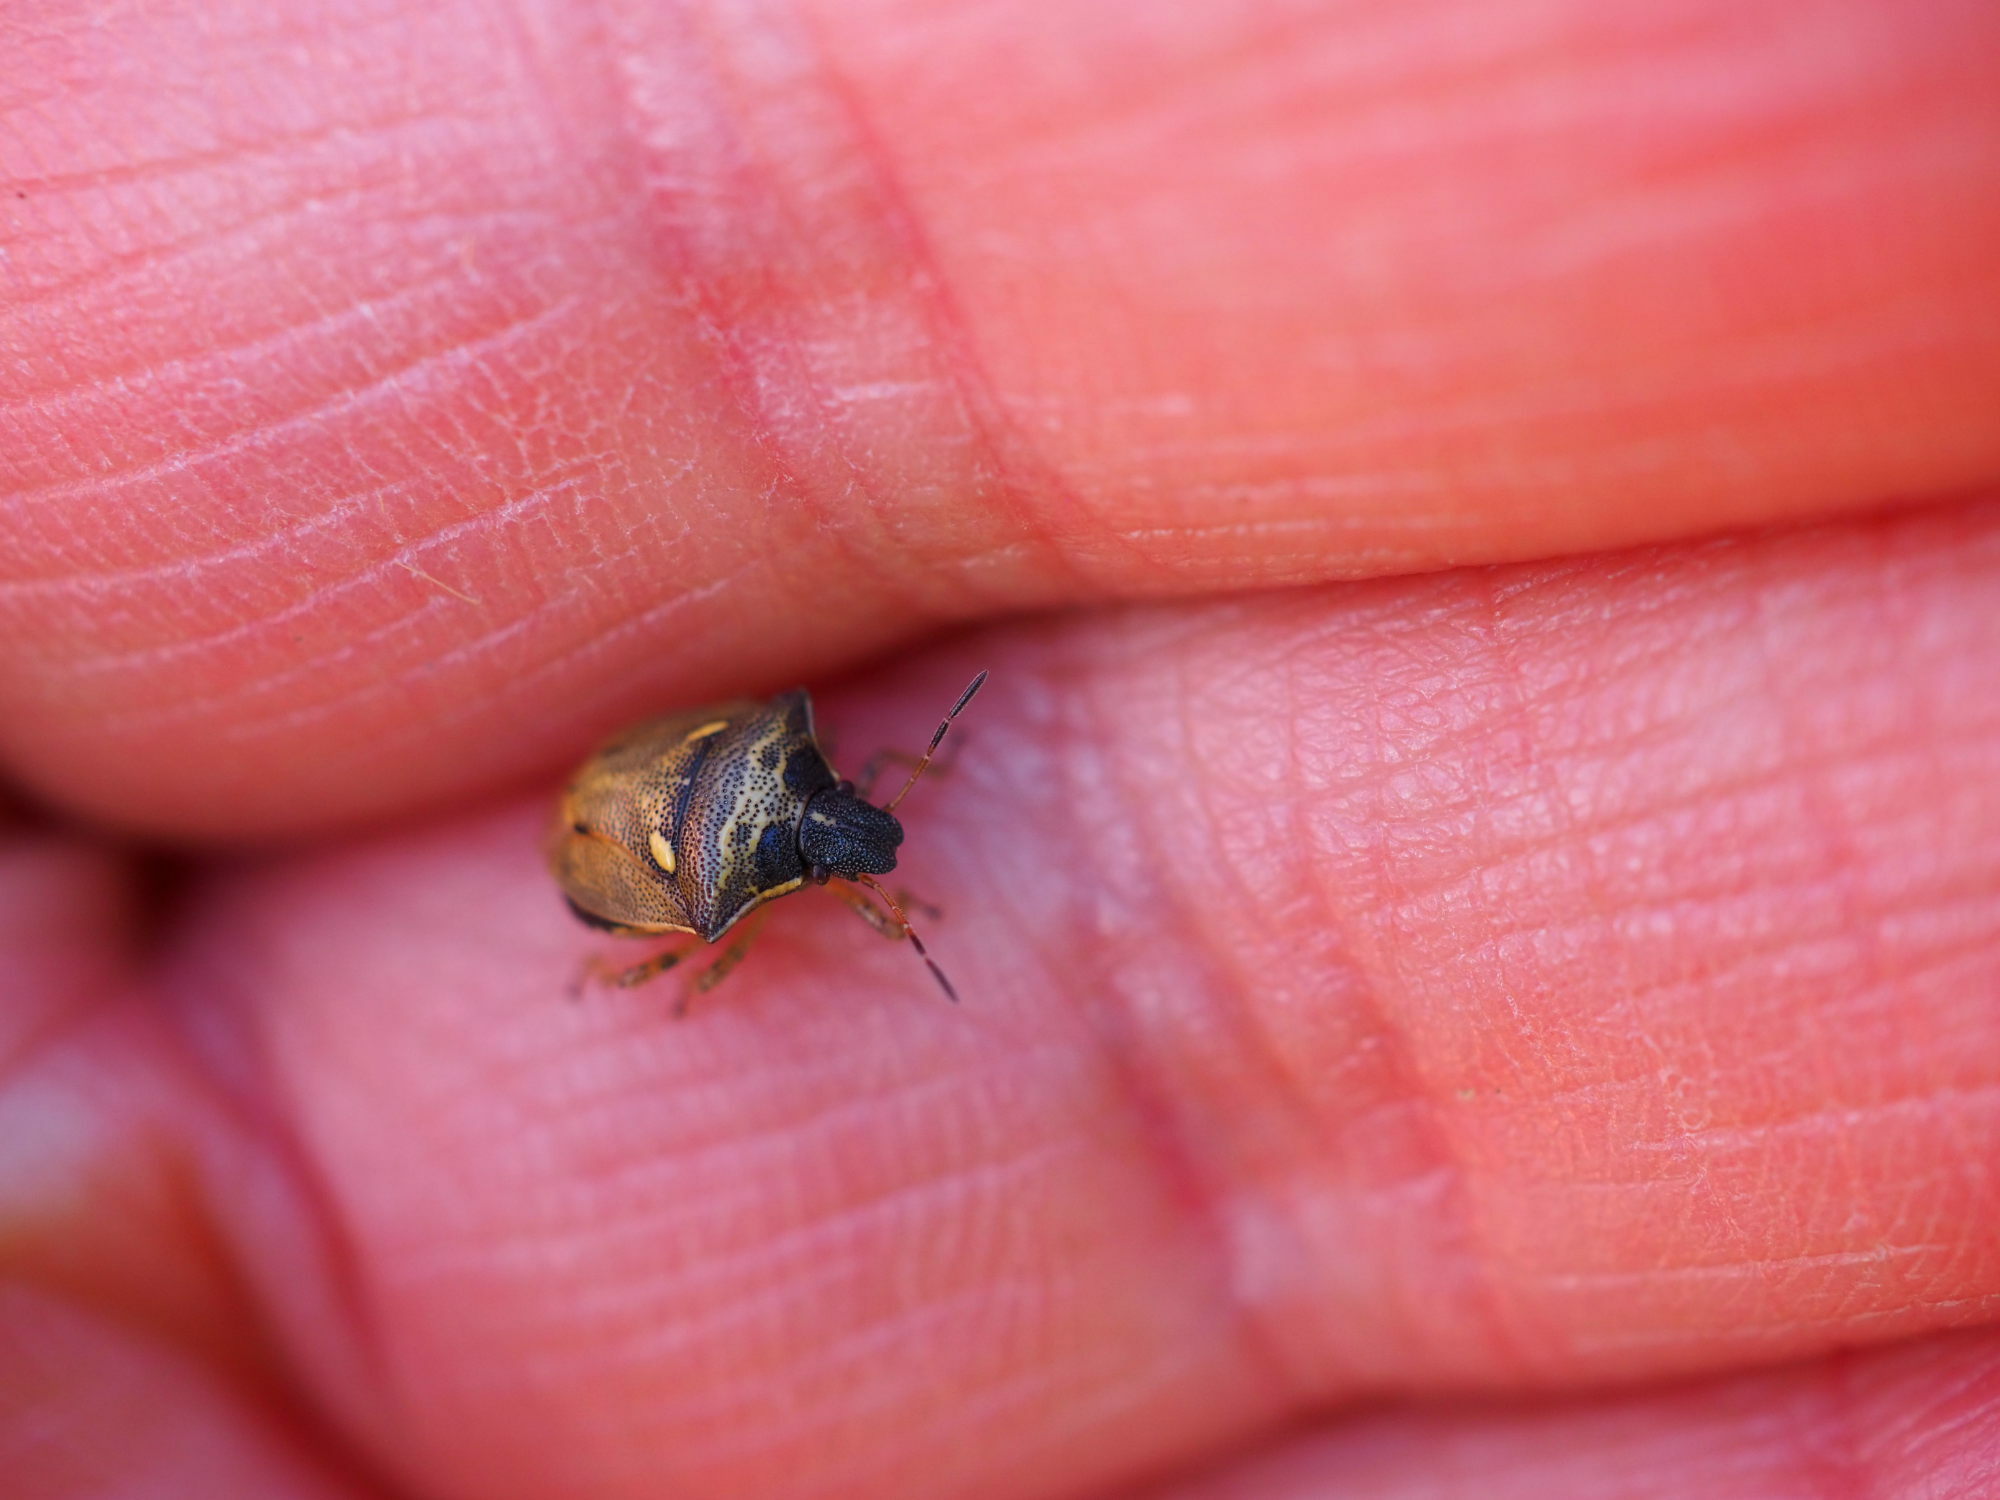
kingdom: Animalia
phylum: Arthropoda
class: Insecta
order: Hemiptera
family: Pentatomidae
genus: Eysarcoris
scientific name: Eysarcoris aeneus
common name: New forest shieldbug
